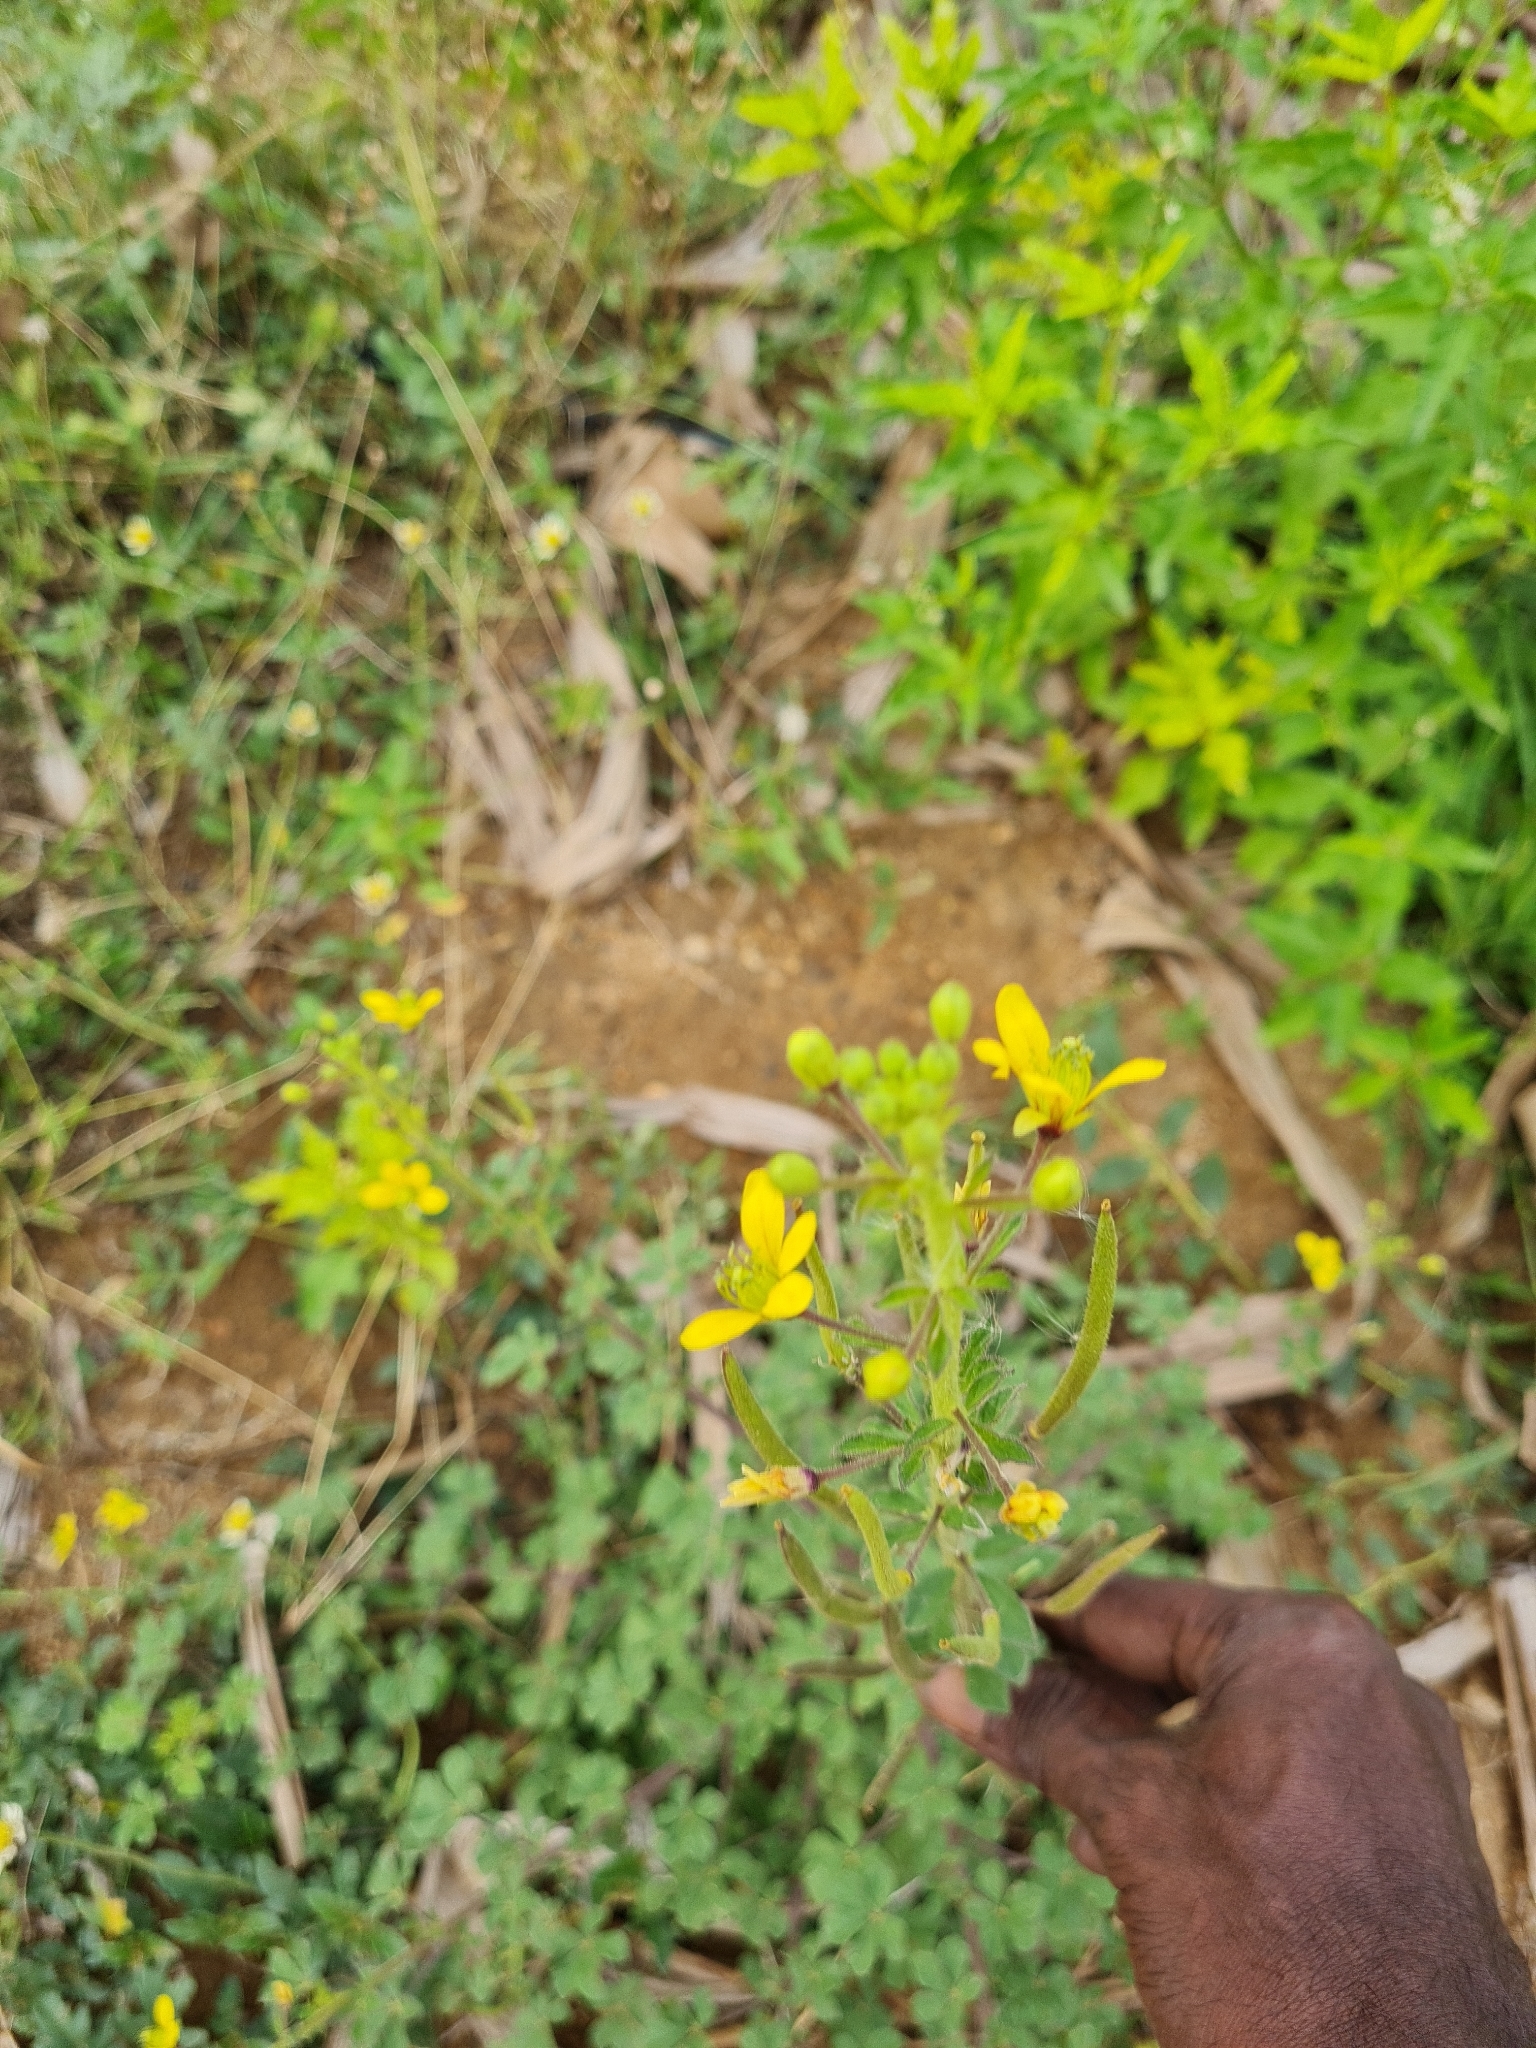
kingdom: Plantae
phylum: Tracheophyta
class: Magnoliopsida
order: Brassicales
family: Cleomaceae
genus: Arivela
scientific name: Arivela viscosa
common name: Asian spiderflower
